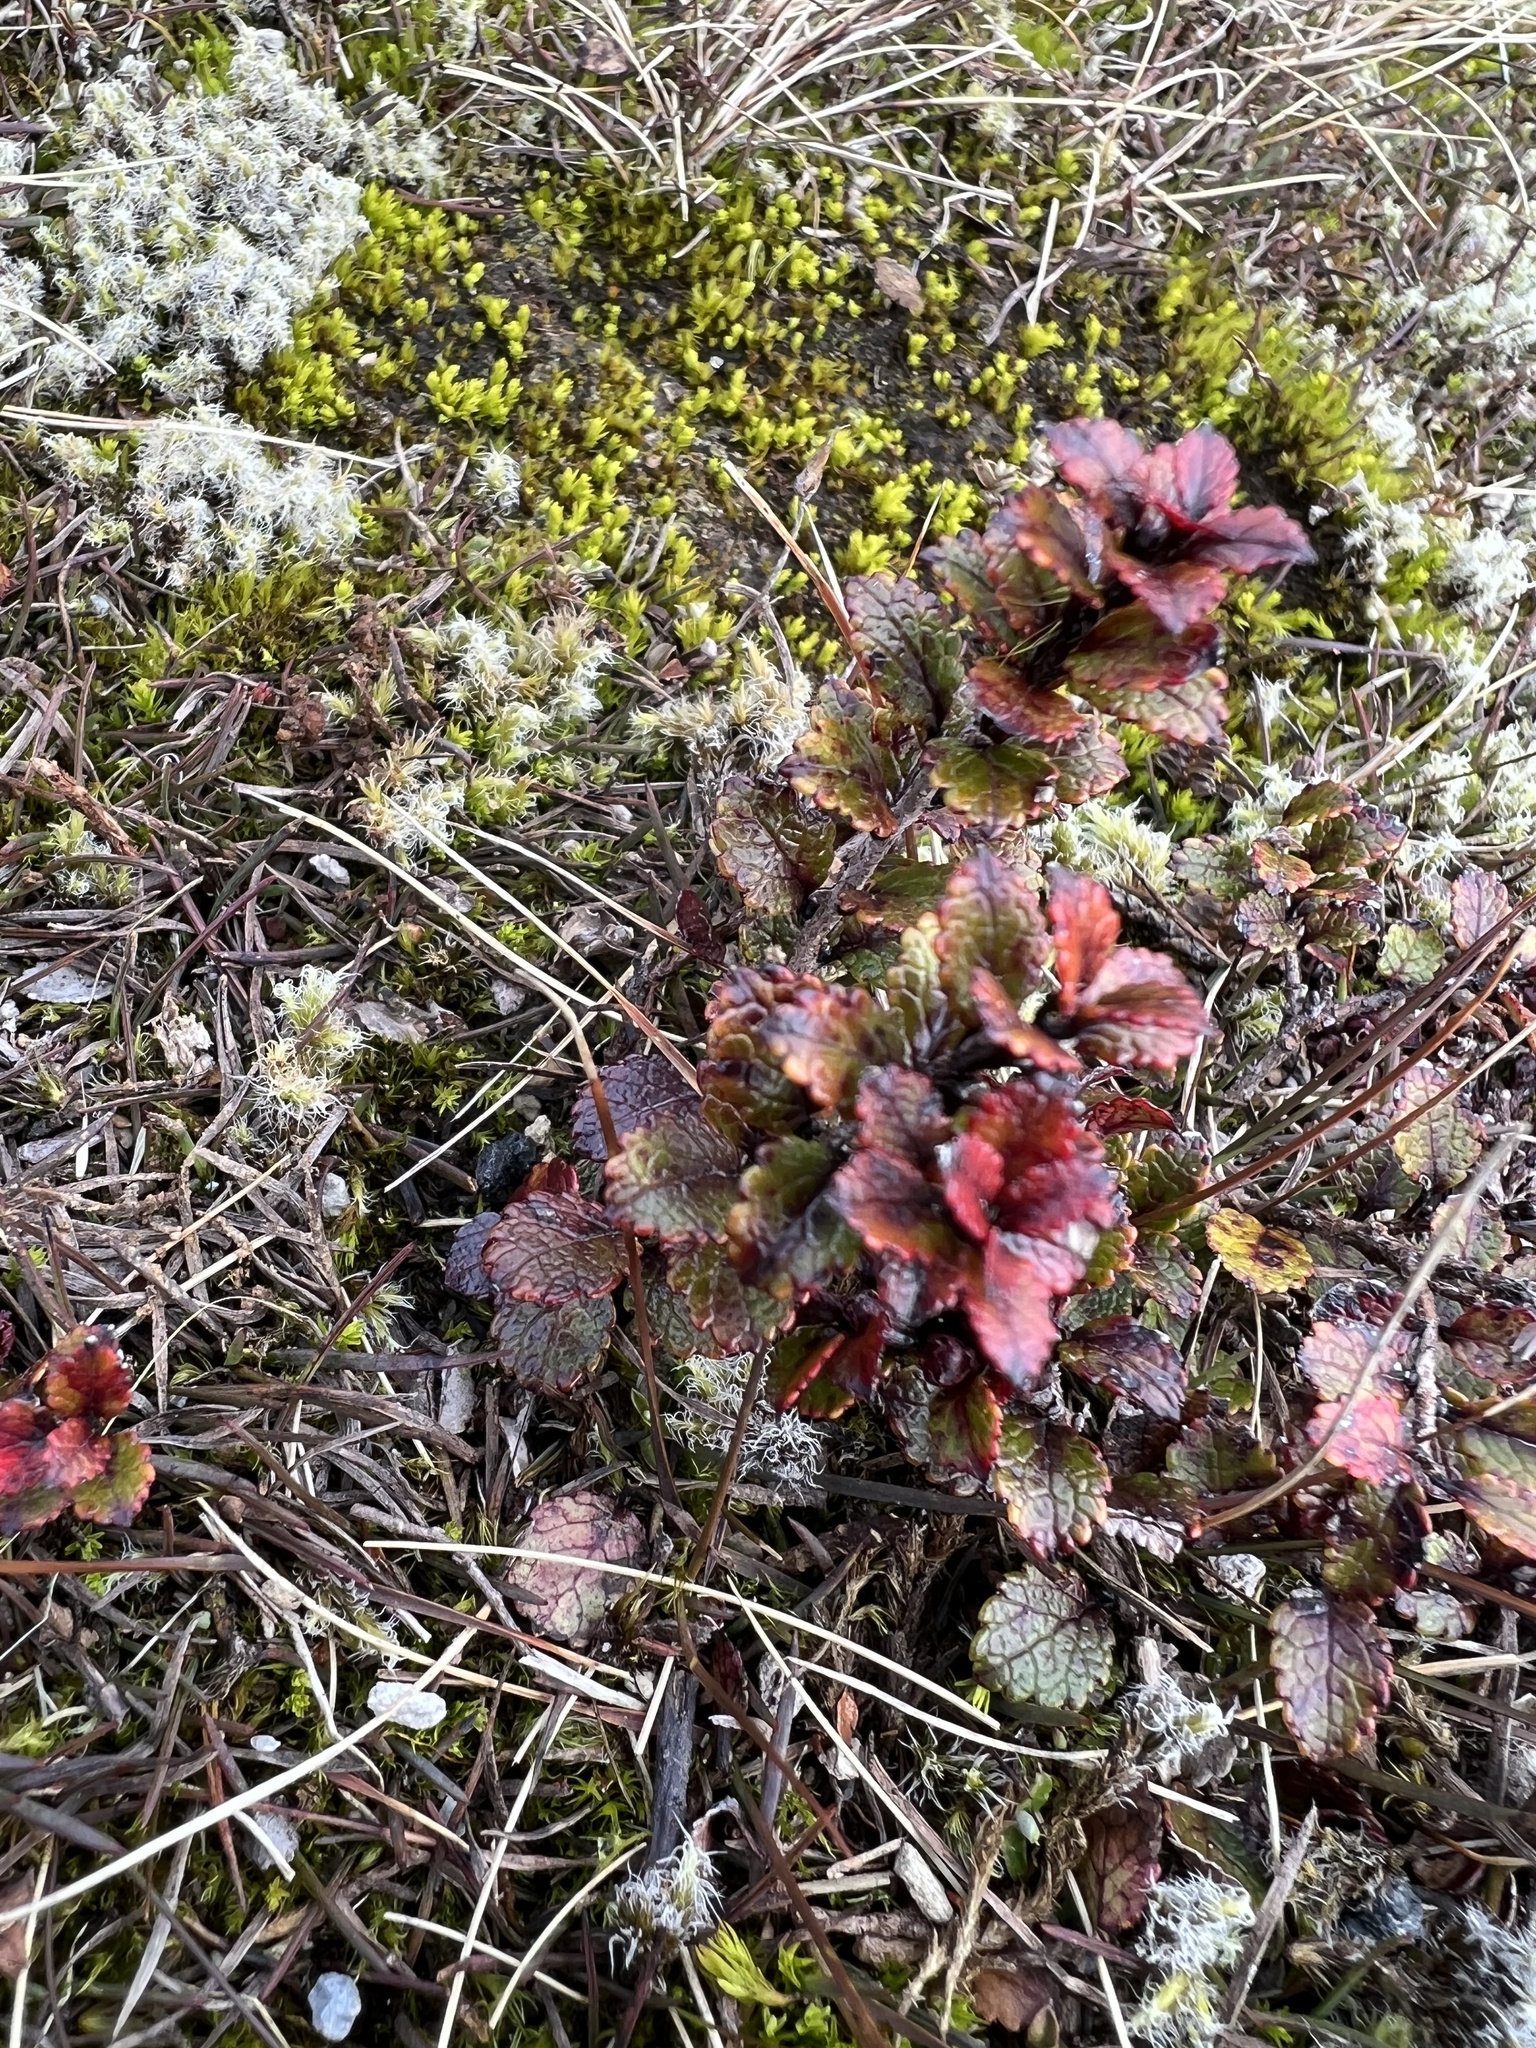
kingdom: Plantae
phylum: Tracheophyta
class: Magnoliopsida
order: Ericales
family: Ericaceae
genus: Gaultheria
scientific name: Gaultheria depressa
